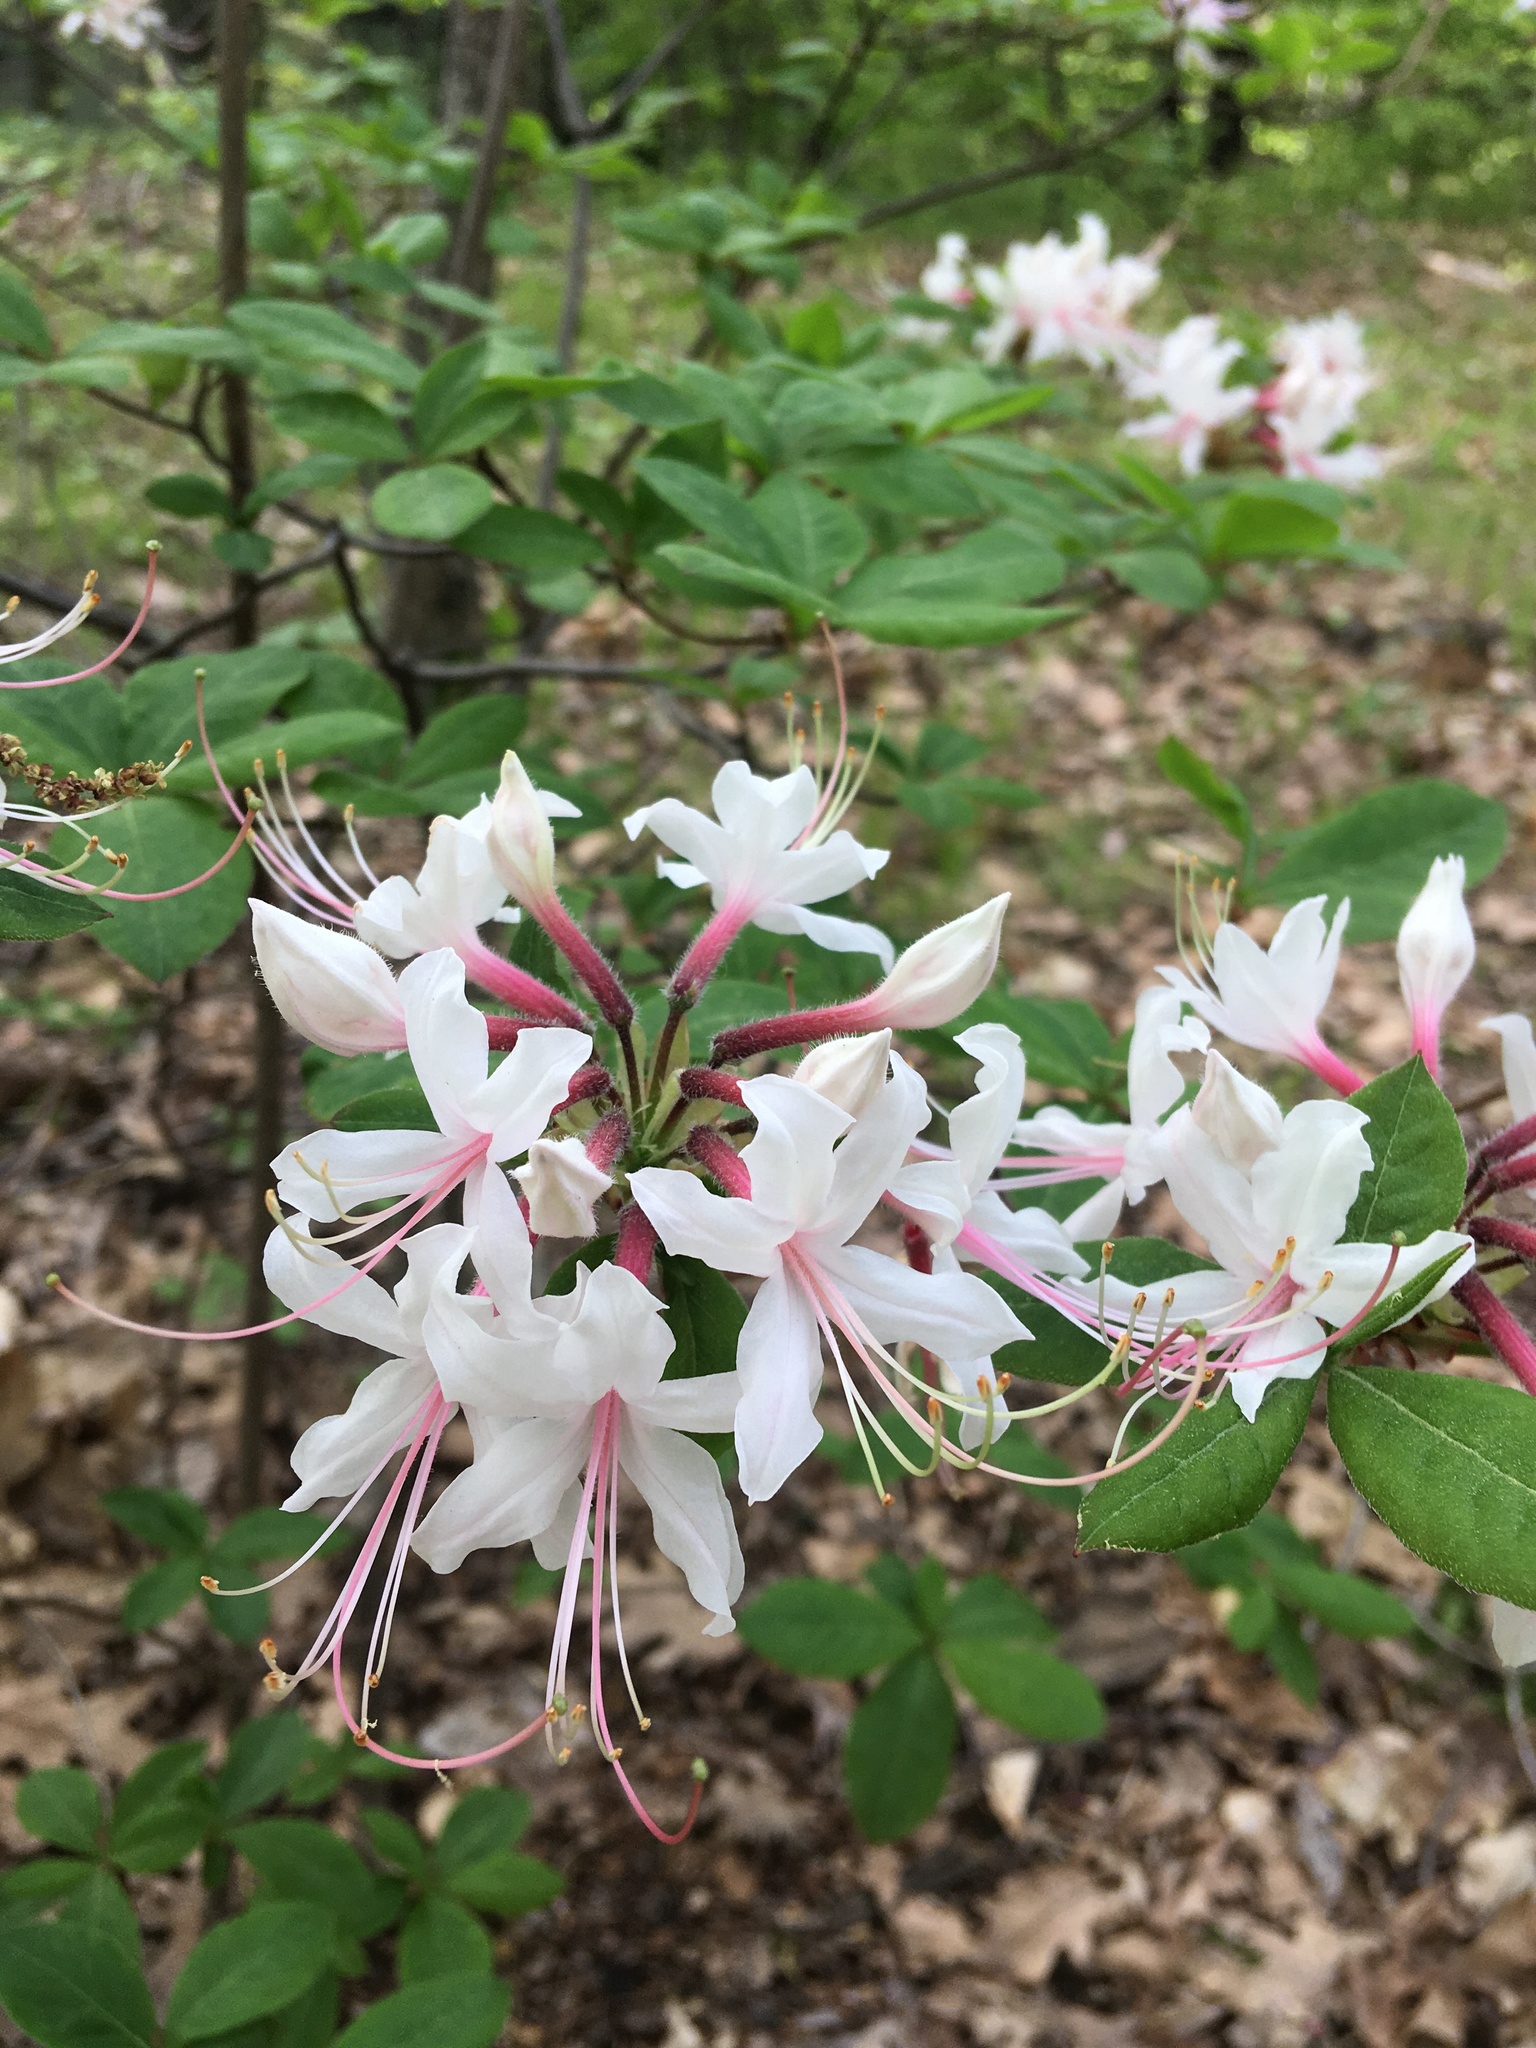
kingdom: Plantae
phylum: Tracheophyta
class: Magnoliopsida
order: Ericales
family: Ericaceae
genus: Rhododendron
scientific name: Rhododendron periclymenoides
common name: Election-pink
